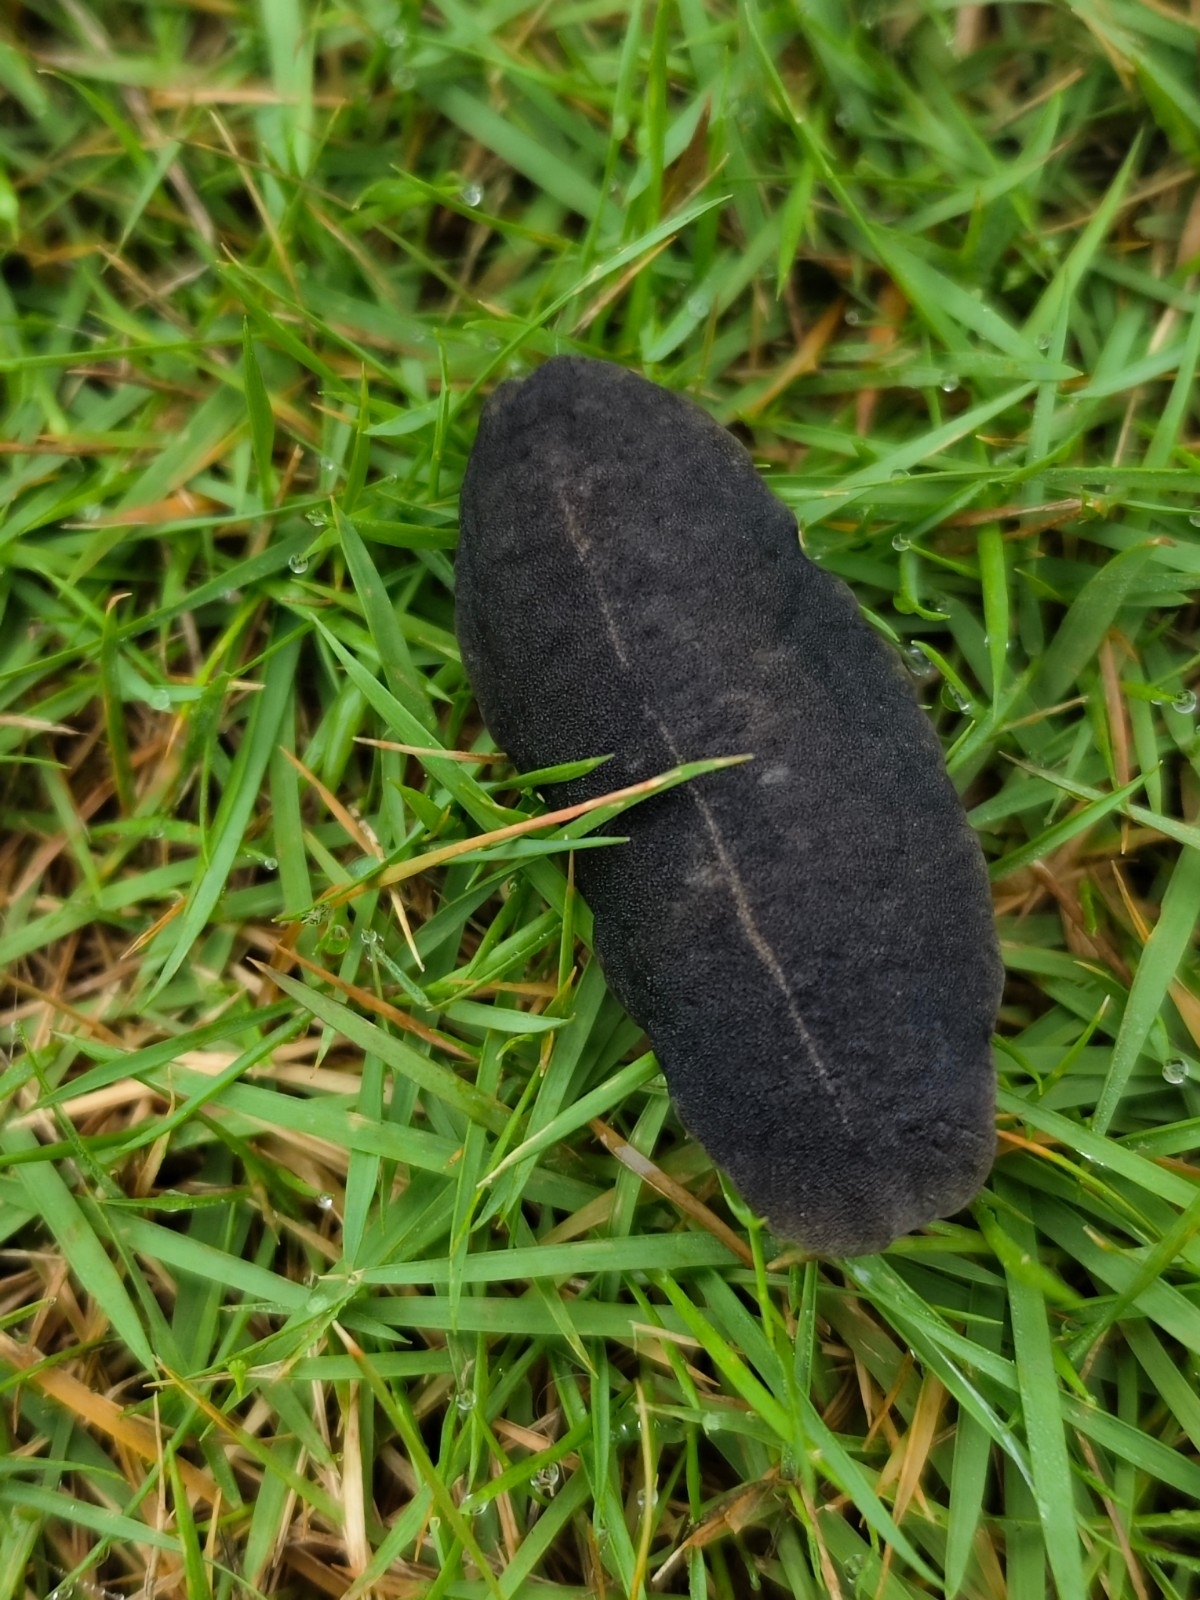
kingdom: Animalia
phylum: Mollusca
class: Gastropoda
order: Systellommatophora
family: Veronicellidae
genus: Laevicaulis
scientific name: Laevicaulis alte
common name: Tropical leatherleaf
